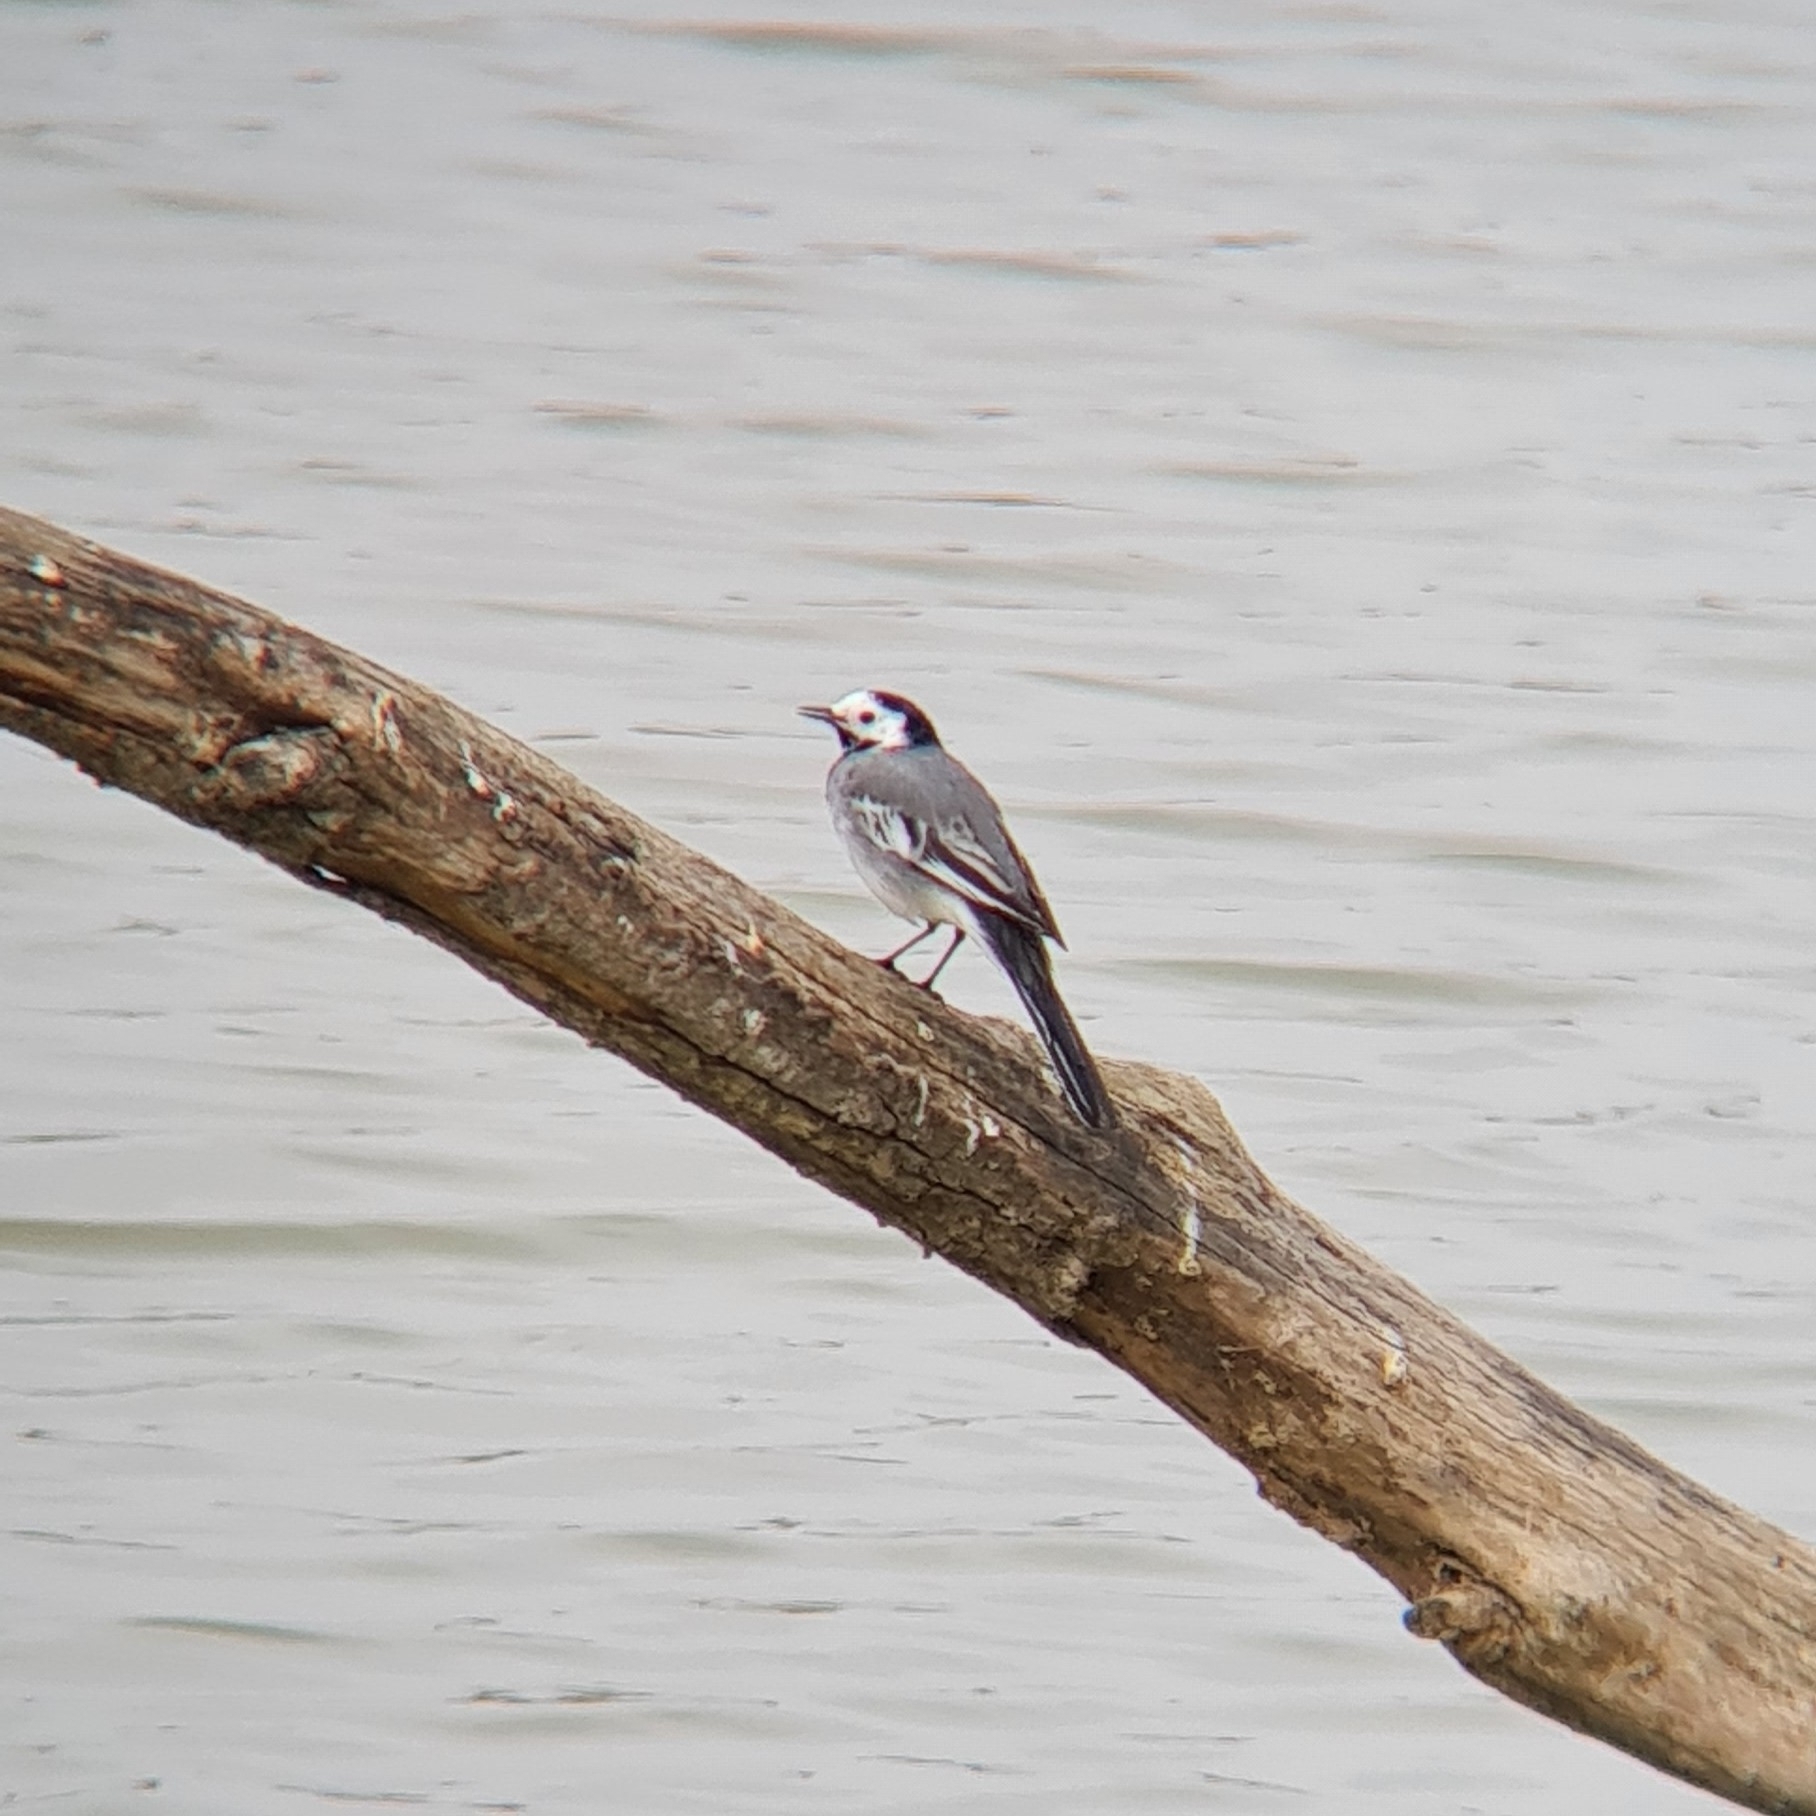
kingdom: Animalia
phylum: Chordata
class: Aves
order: Passeriformes
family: Motacillidae
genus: Motacilla
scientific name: Motacilla alba
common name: White wagtail
